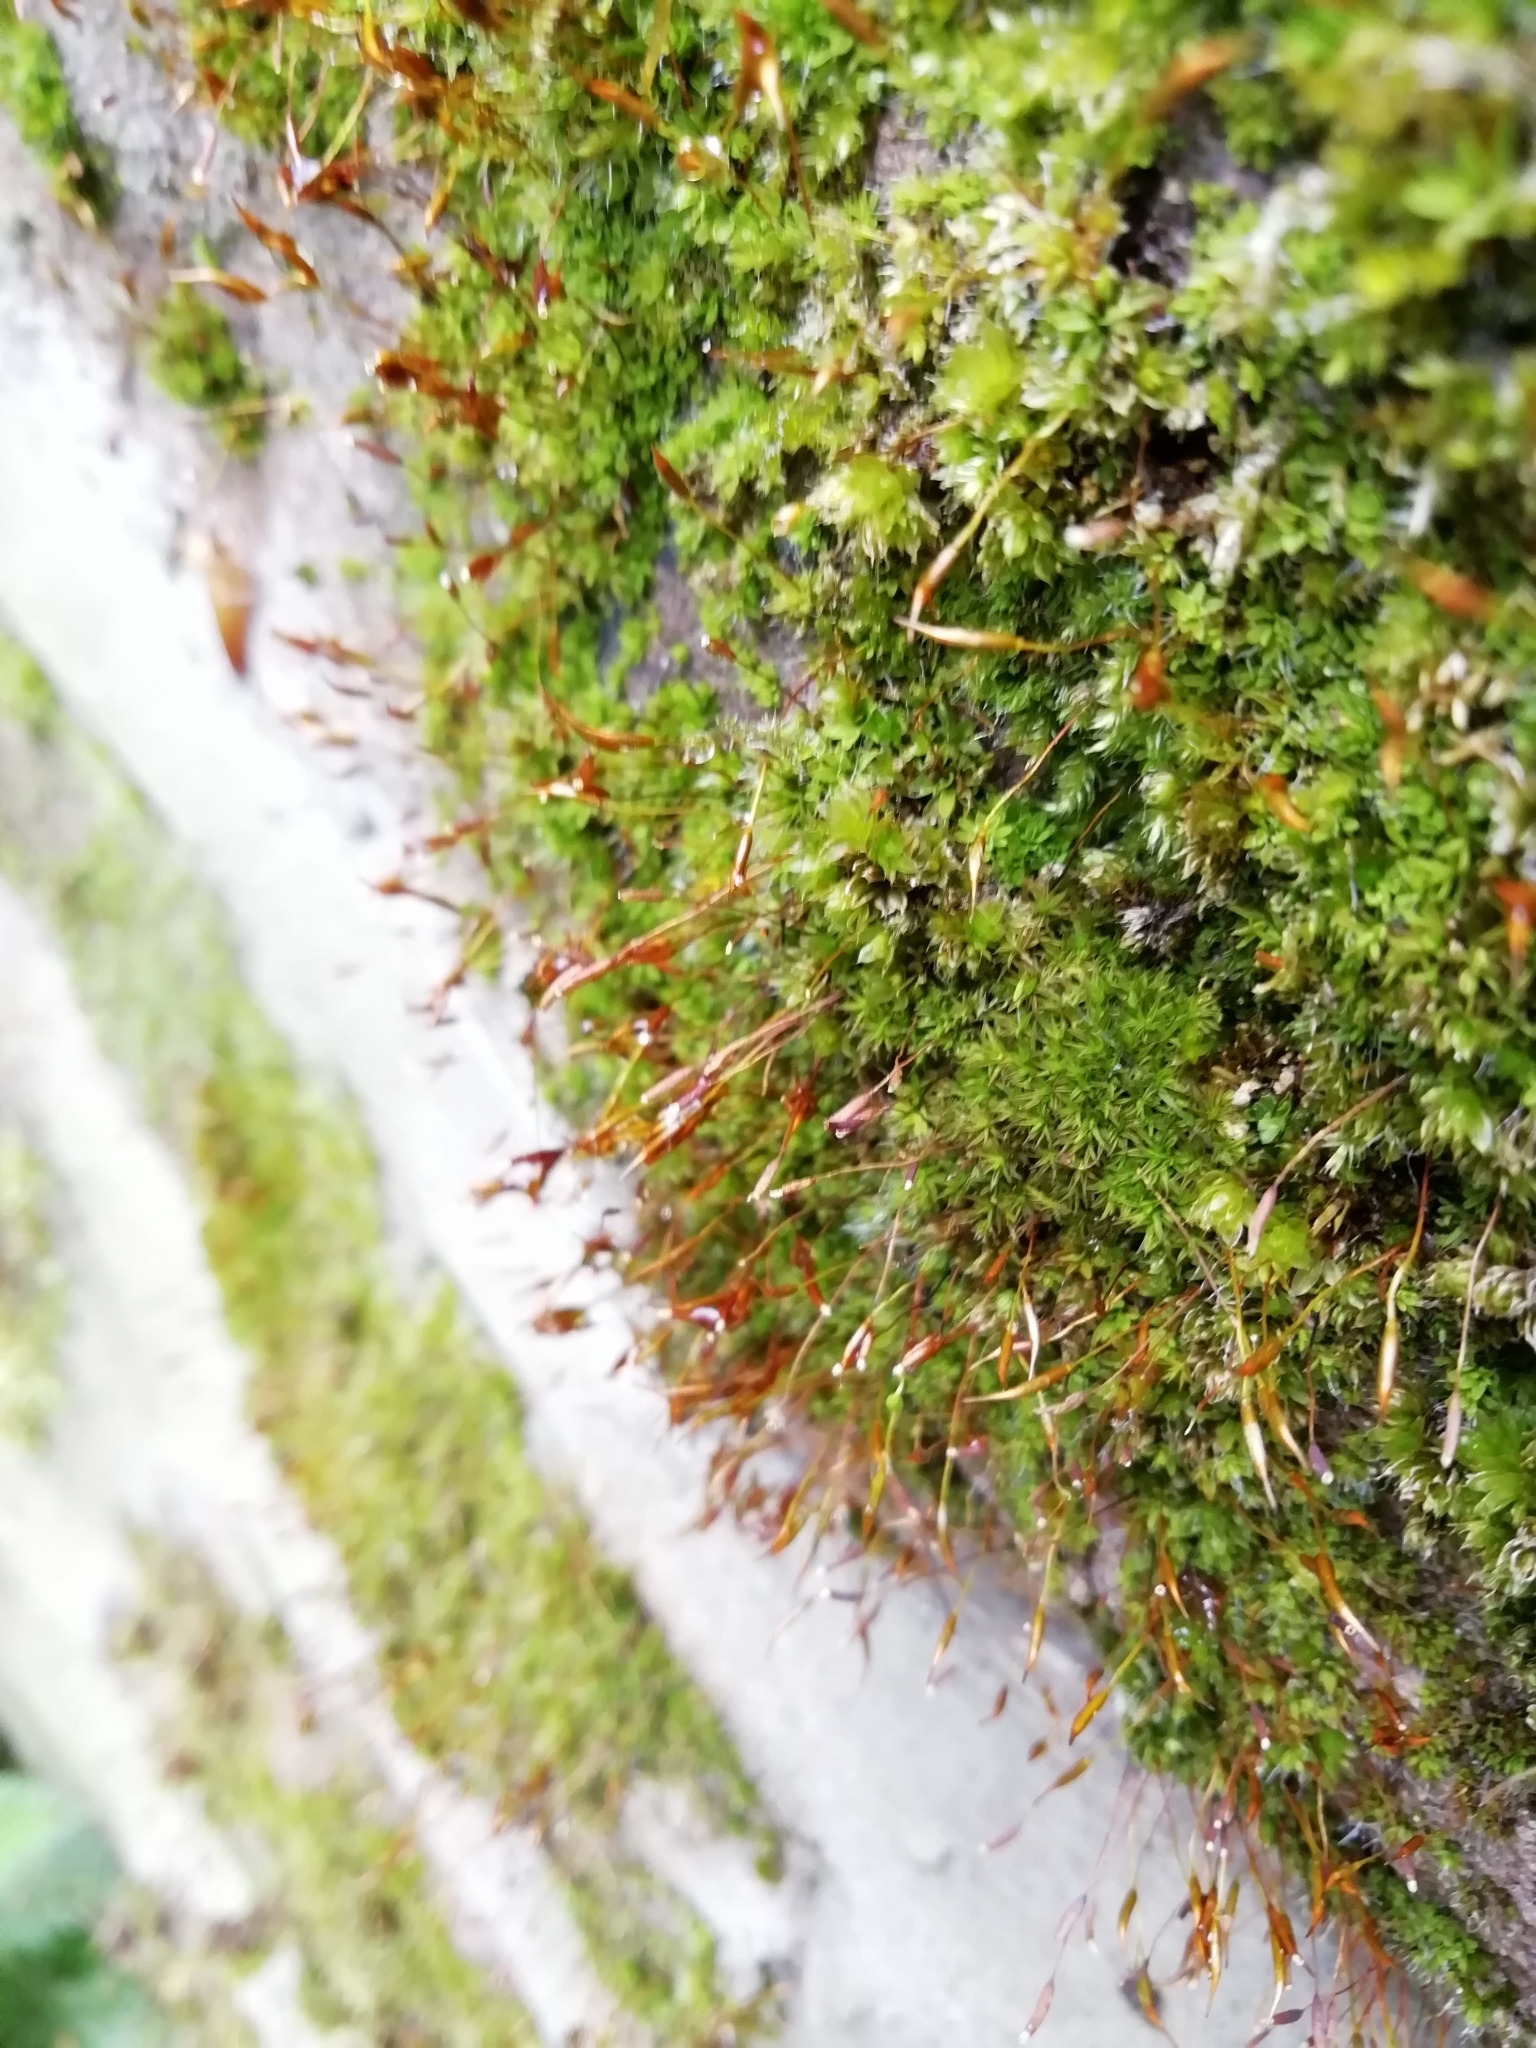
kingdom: Plantae
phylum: Bryophyta
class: Bryopsida
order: Pottiales
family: Pottiaceae
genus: Tortula
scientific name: Tortula muralis
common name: Wall screw-moss
